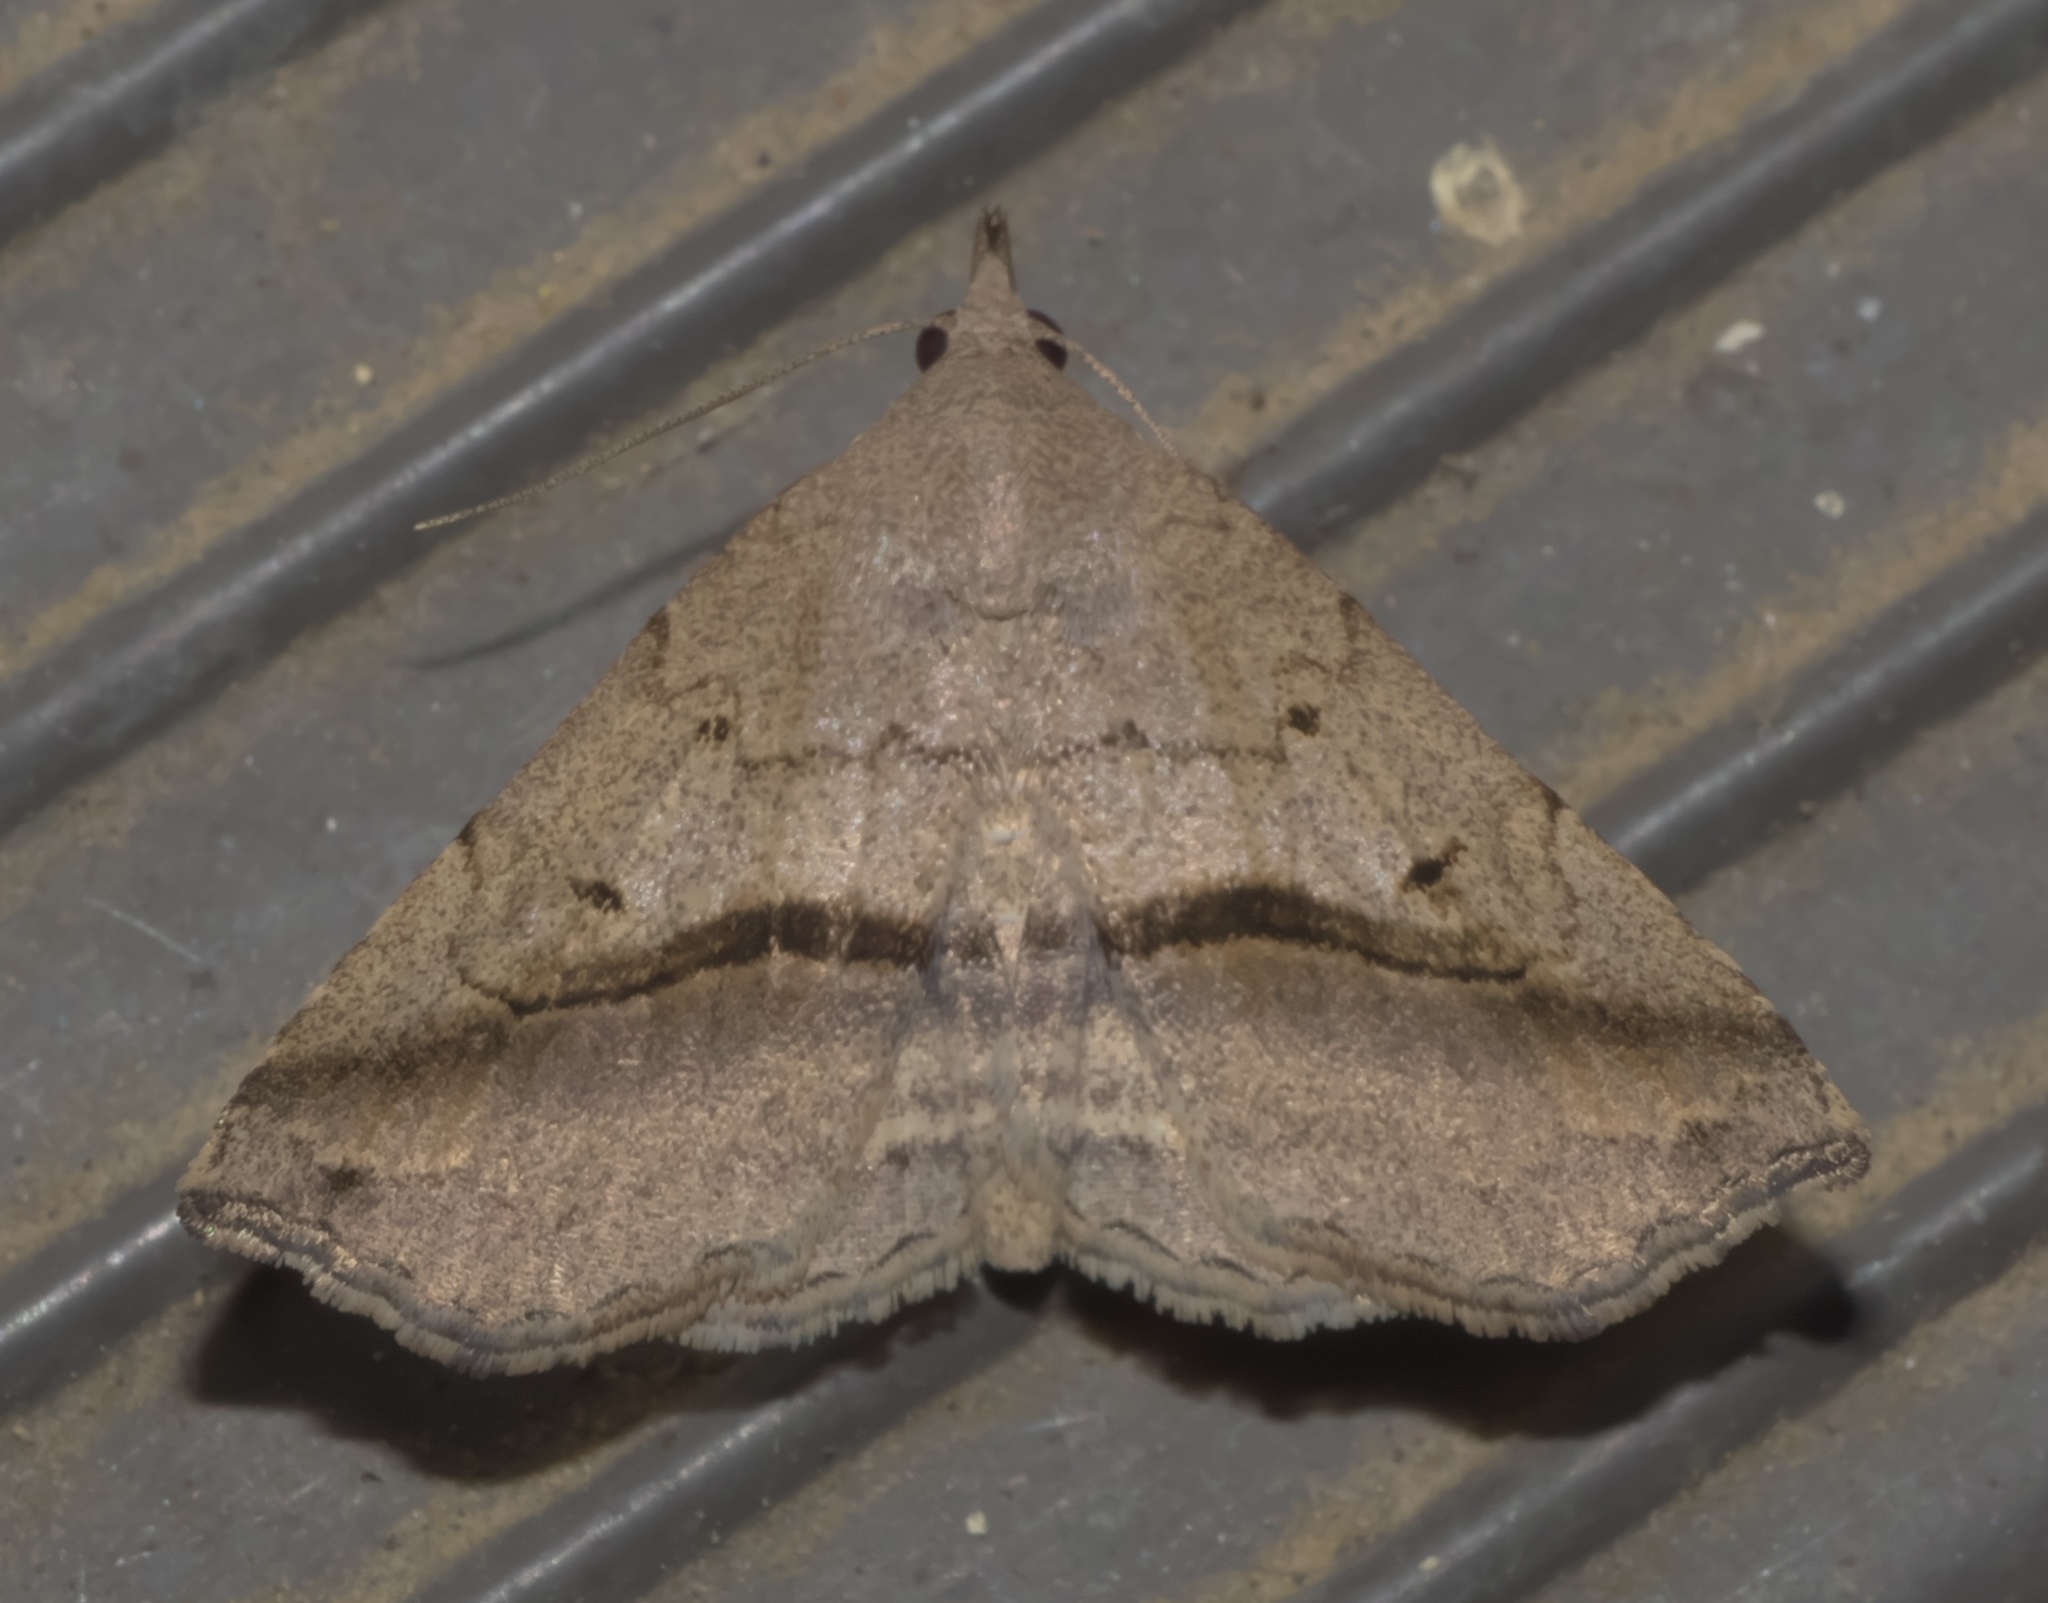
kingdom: Animalia
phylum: Arthropoda
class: Insecta
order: Lepidoptera
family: Erebidae
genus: Spargaloma
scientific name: Spargaloma perditalis
